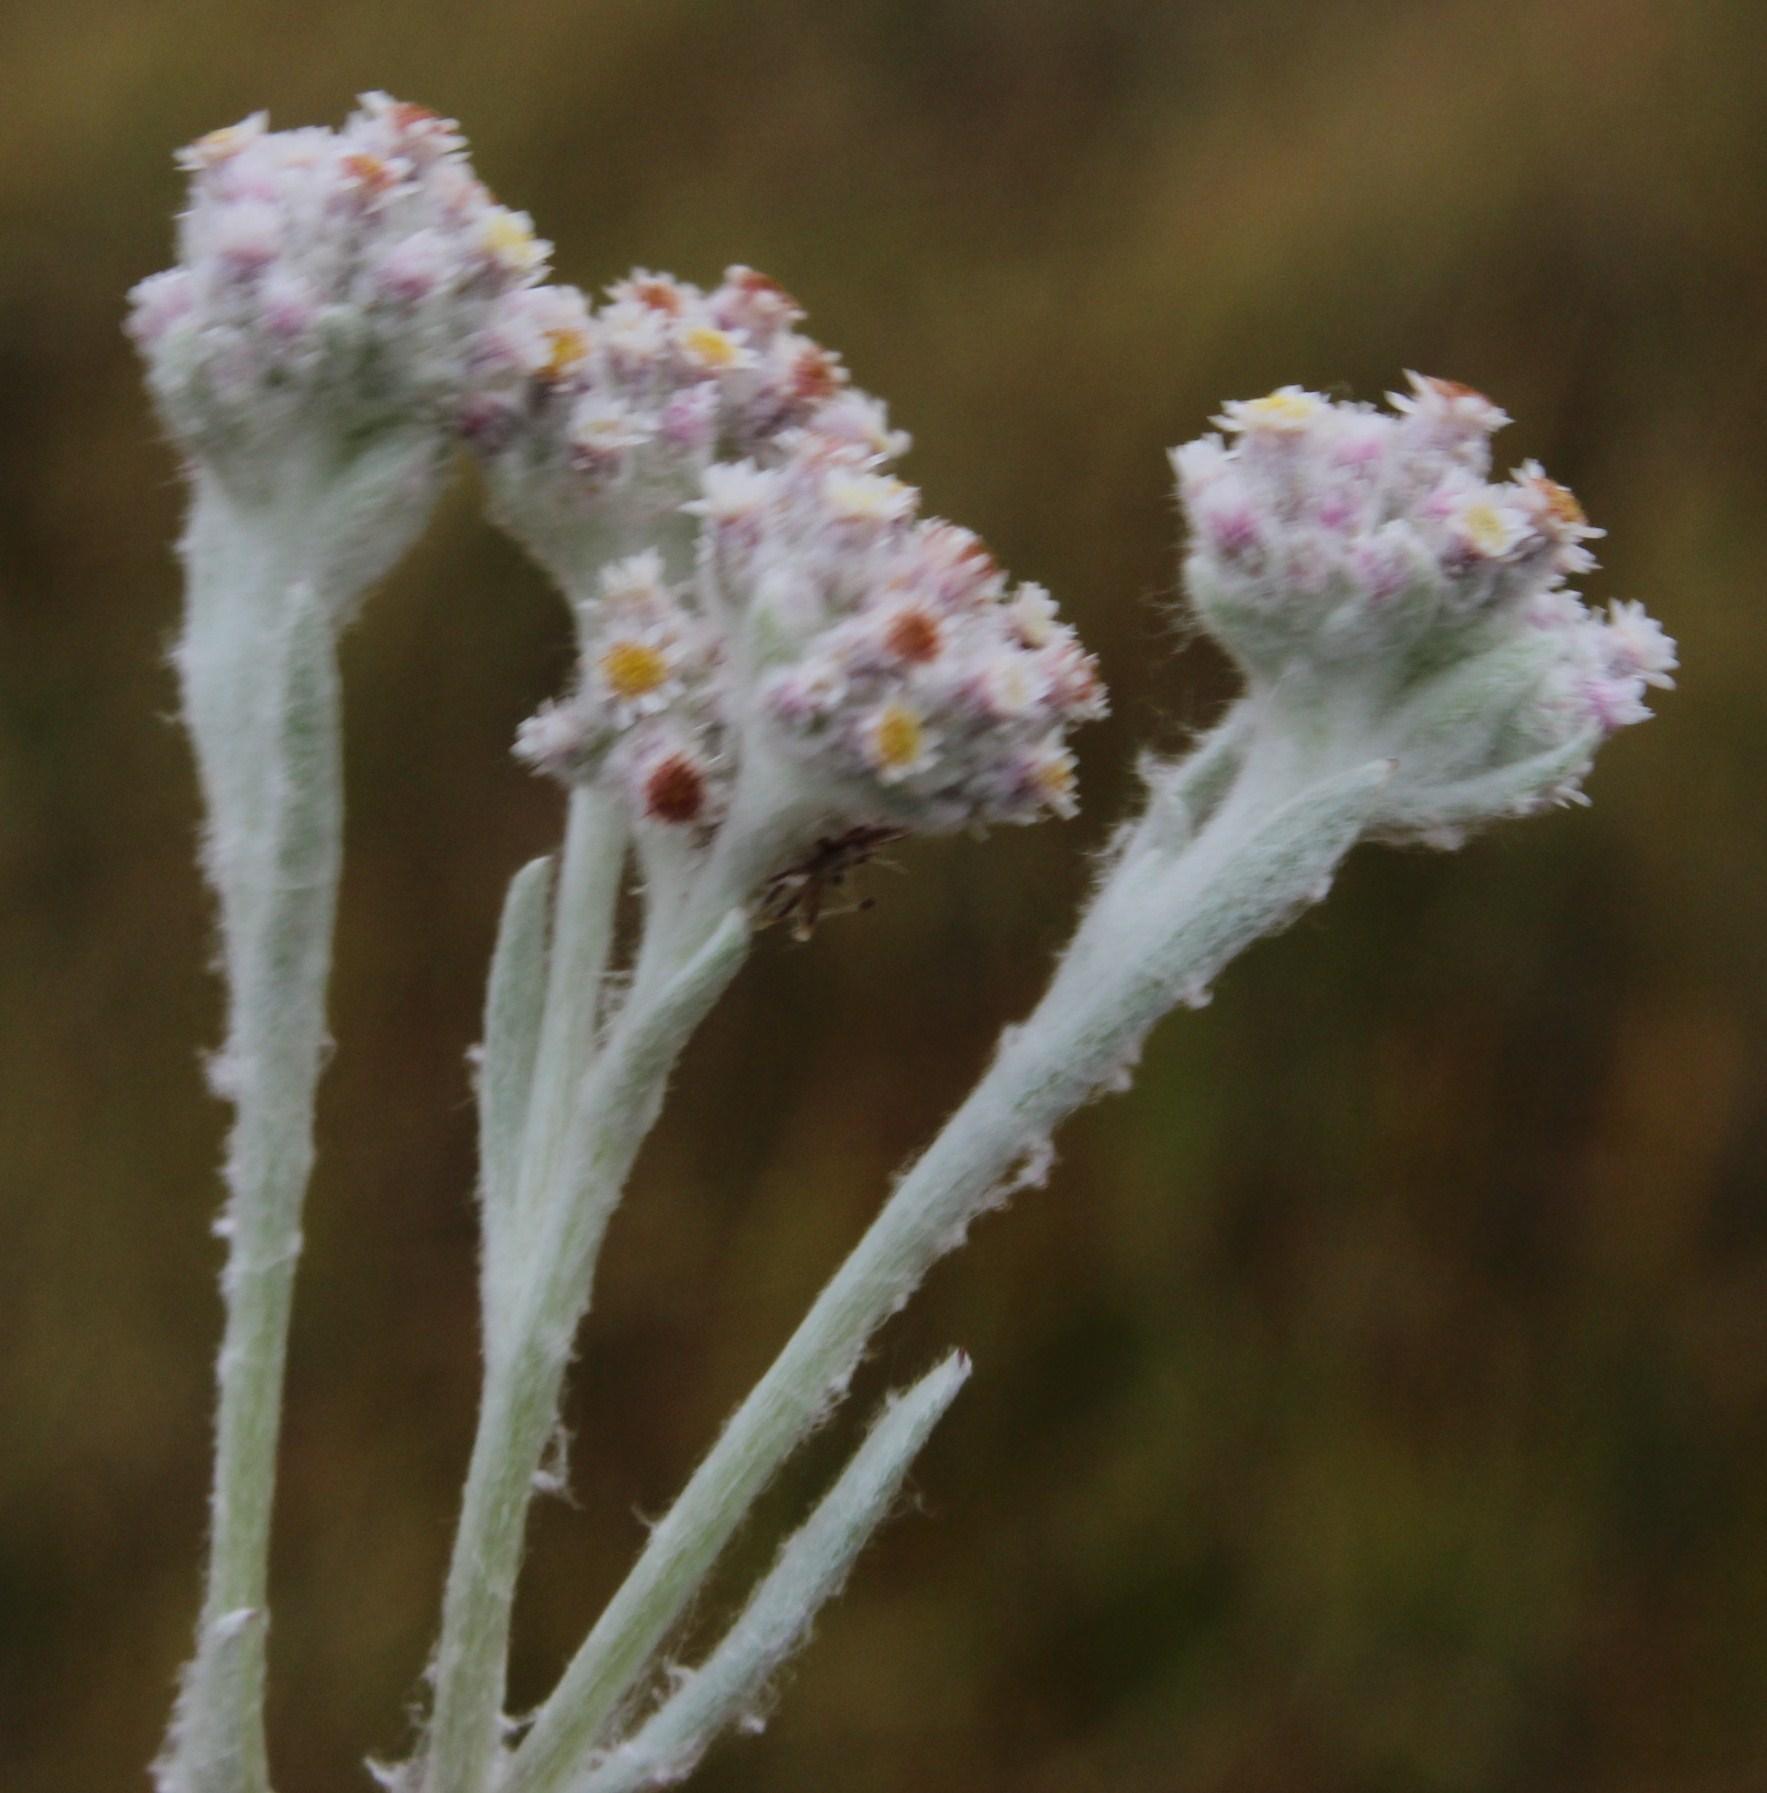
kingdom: Plantae
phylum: Tracheophyta
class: Magnoliopsida
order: Asterales
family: Asteraceae
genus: Vellereophyton
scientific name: Vellereophyton dealbatum
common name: White-cudweed
